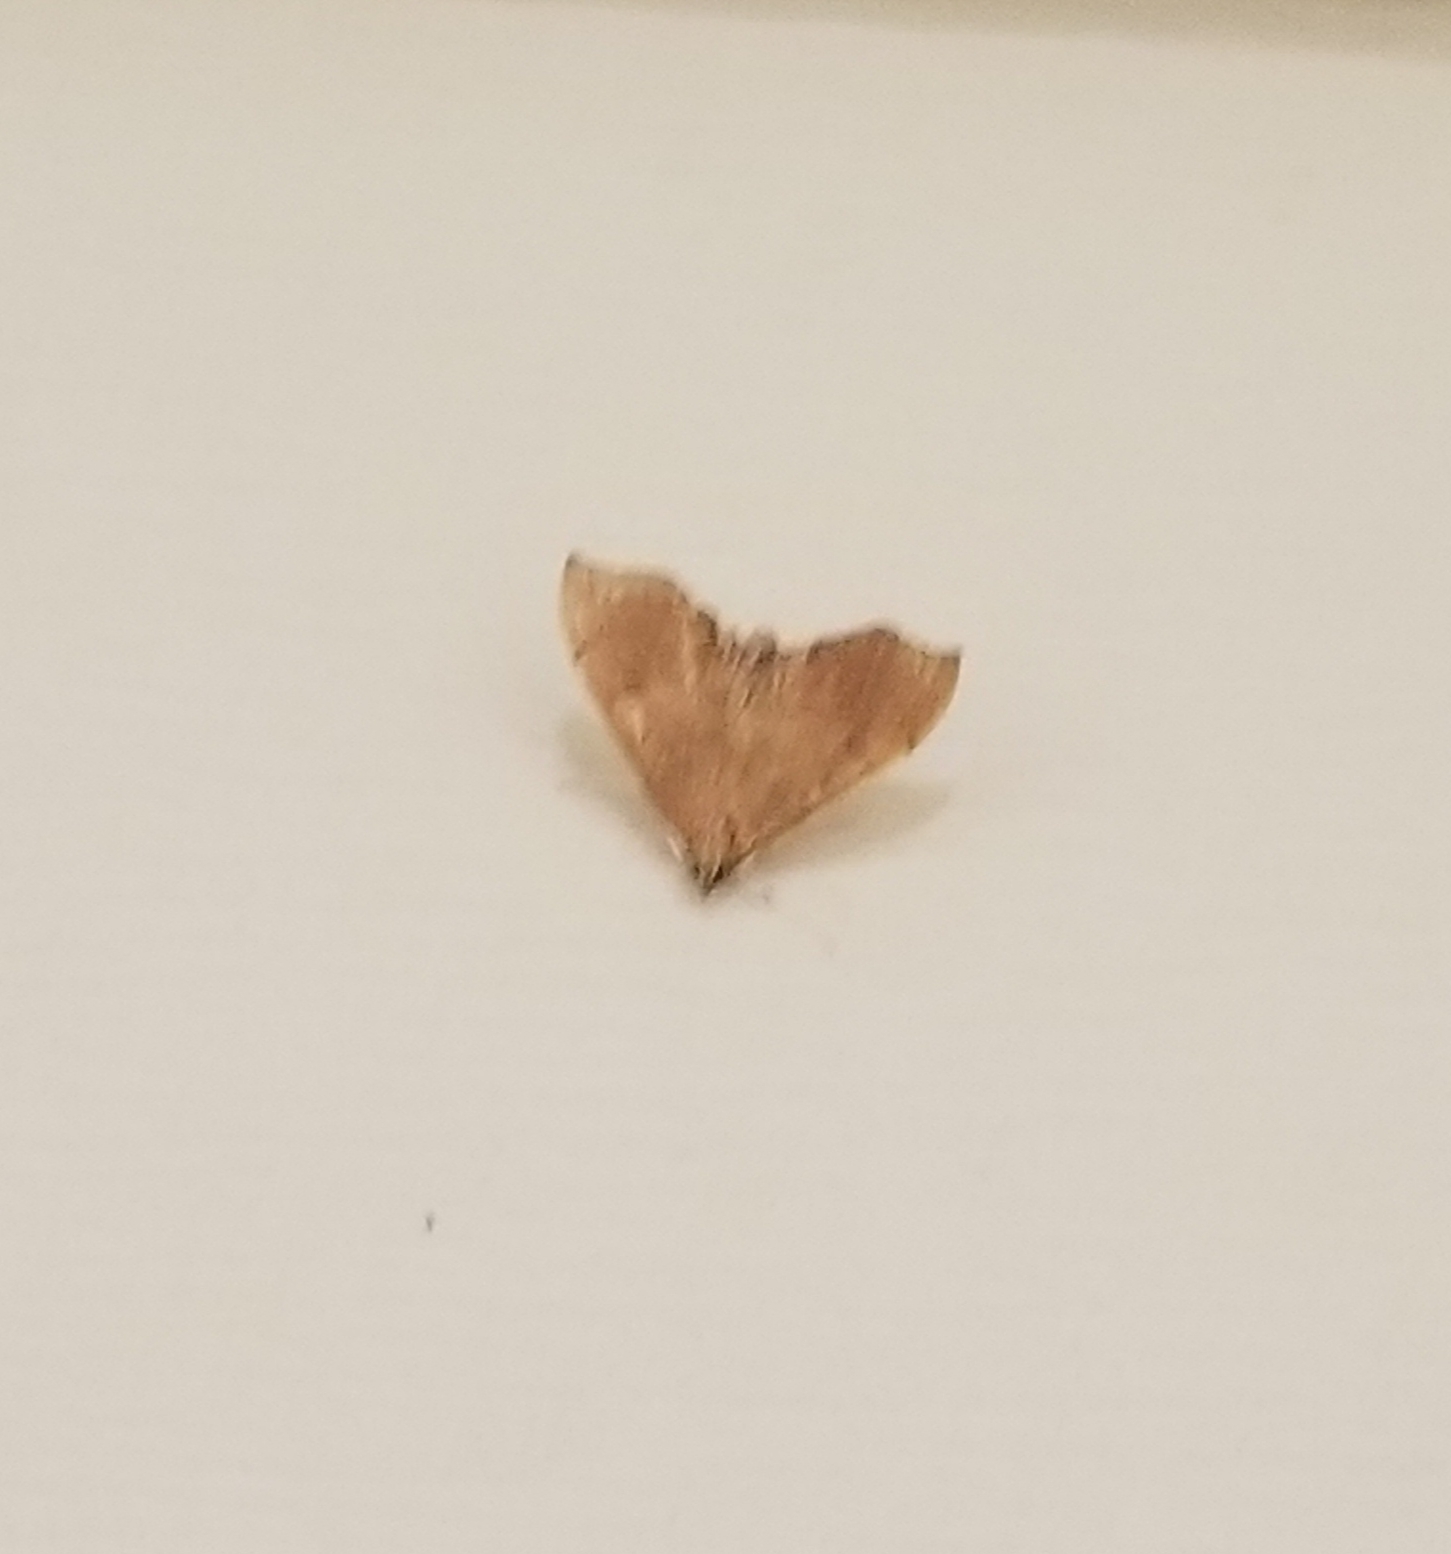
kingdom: Animalia
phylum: Arthropoda
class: Insecta
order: Lepidoptera
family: Crambidae
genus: Sericoplaga
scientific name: Sericoplaga externalis
